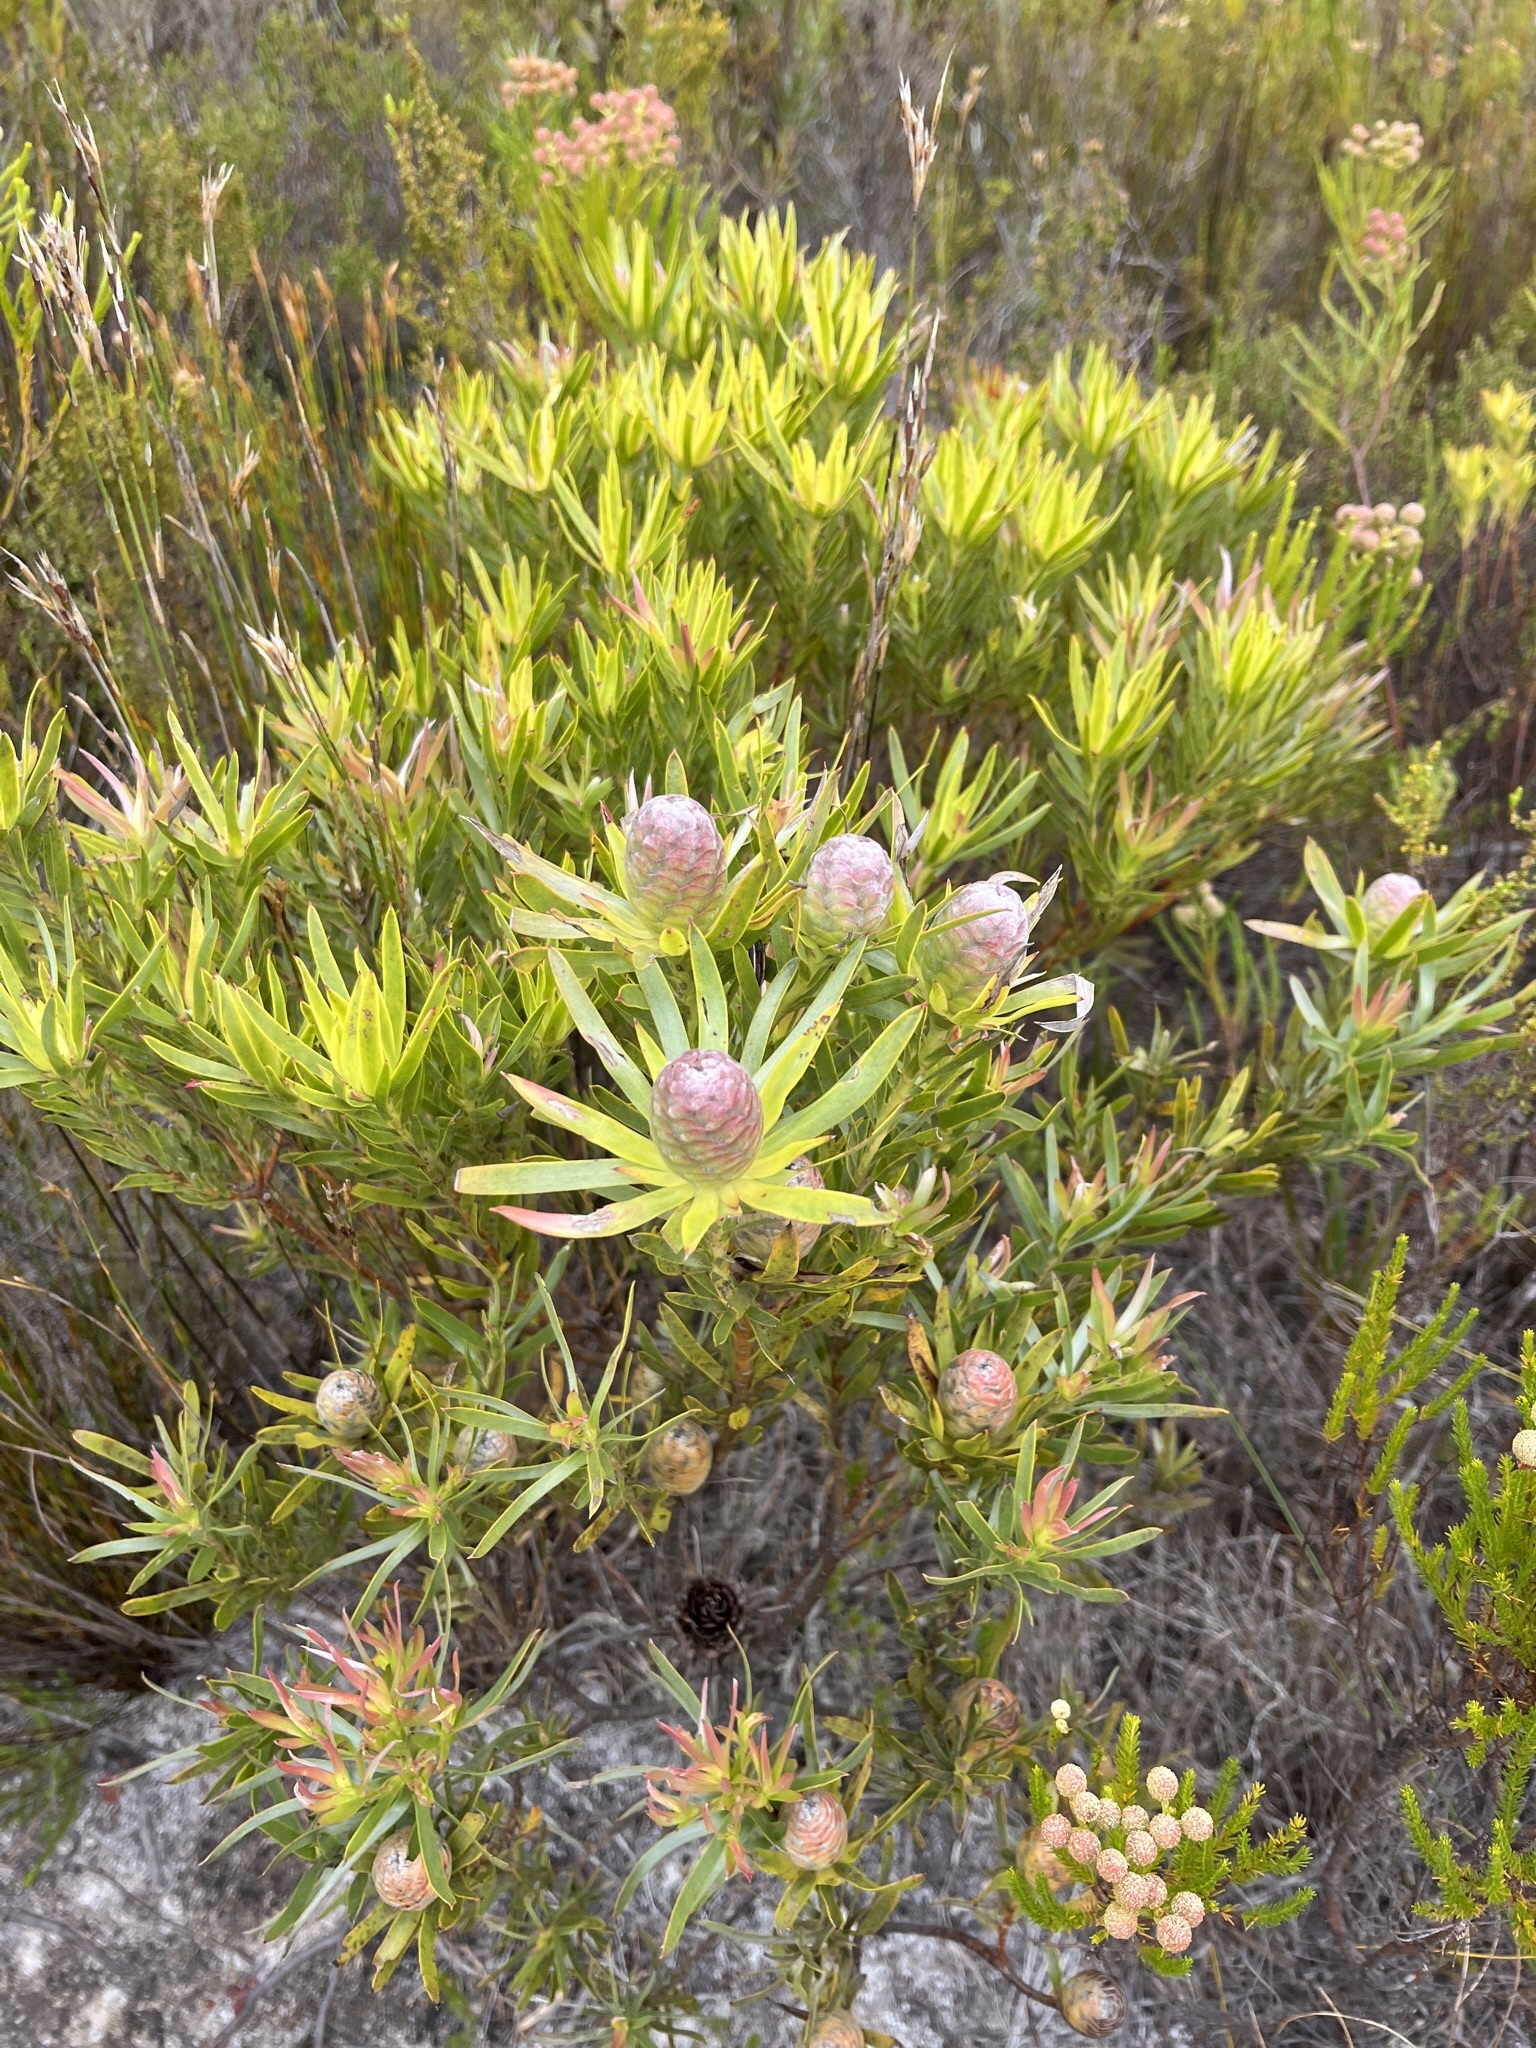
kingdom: Plantae
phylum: Tracheophyta
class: Magnoliopsida
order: Proteales
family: Proteaceae
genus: Leucadendron
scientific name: Leucadendron xanthoconus
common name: Sickle-leaf conebush
